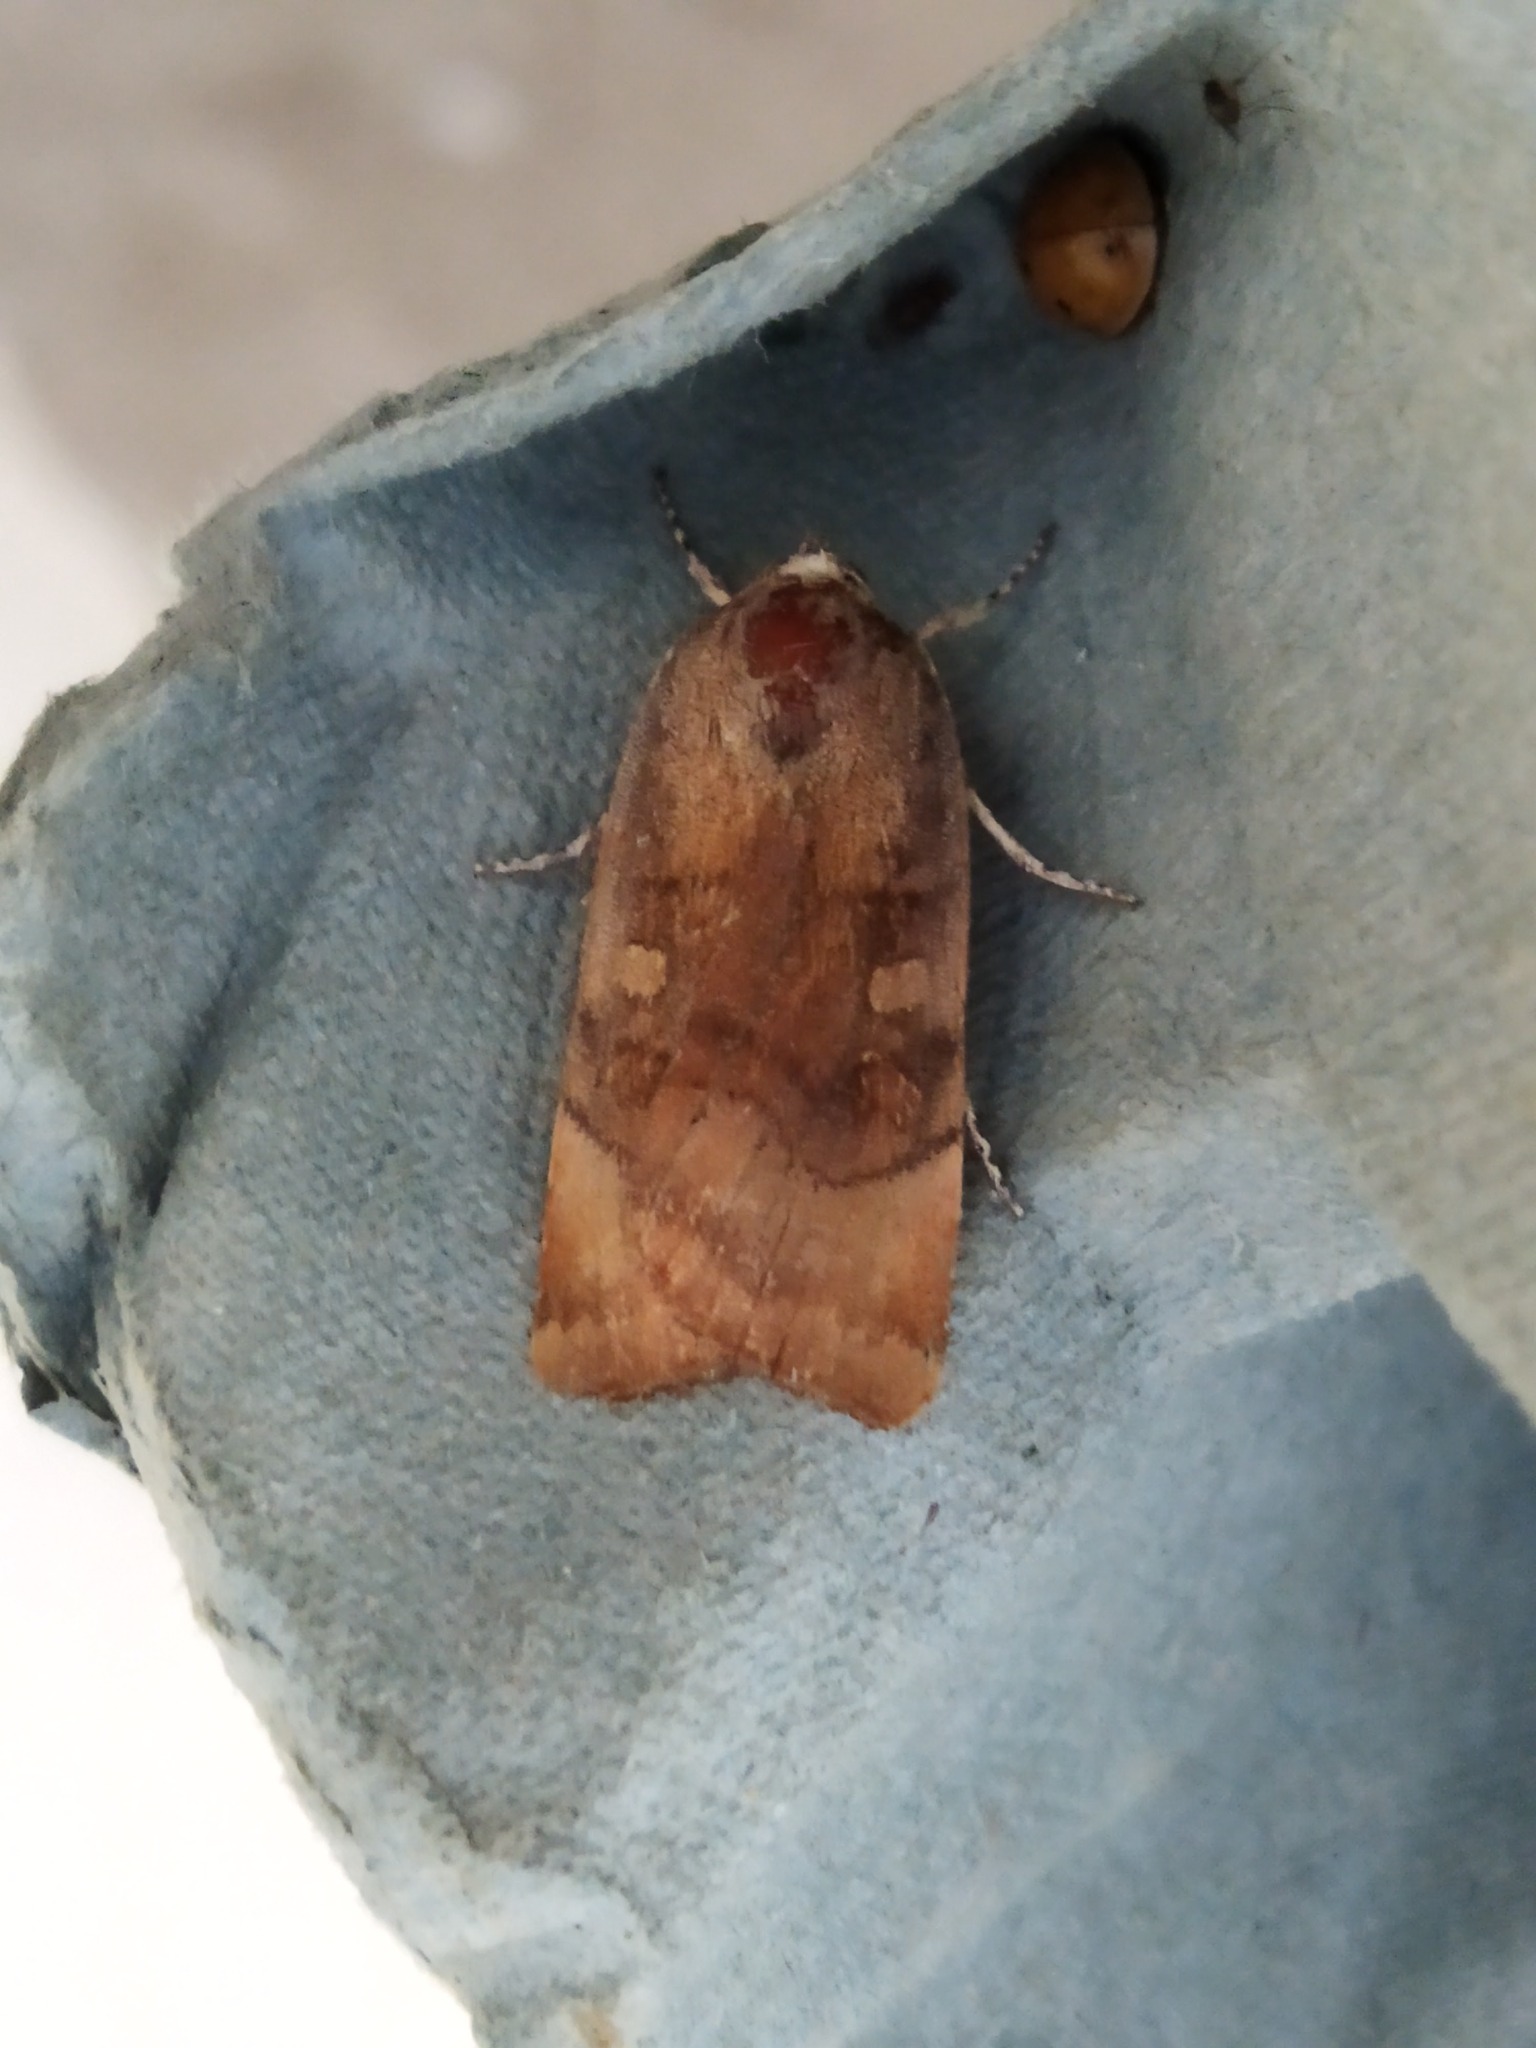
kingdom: Animalia
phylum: Arthropoda
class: Insecta
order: Lepidoptera
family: Noctuidae
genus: Noctua
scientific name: Noctua
